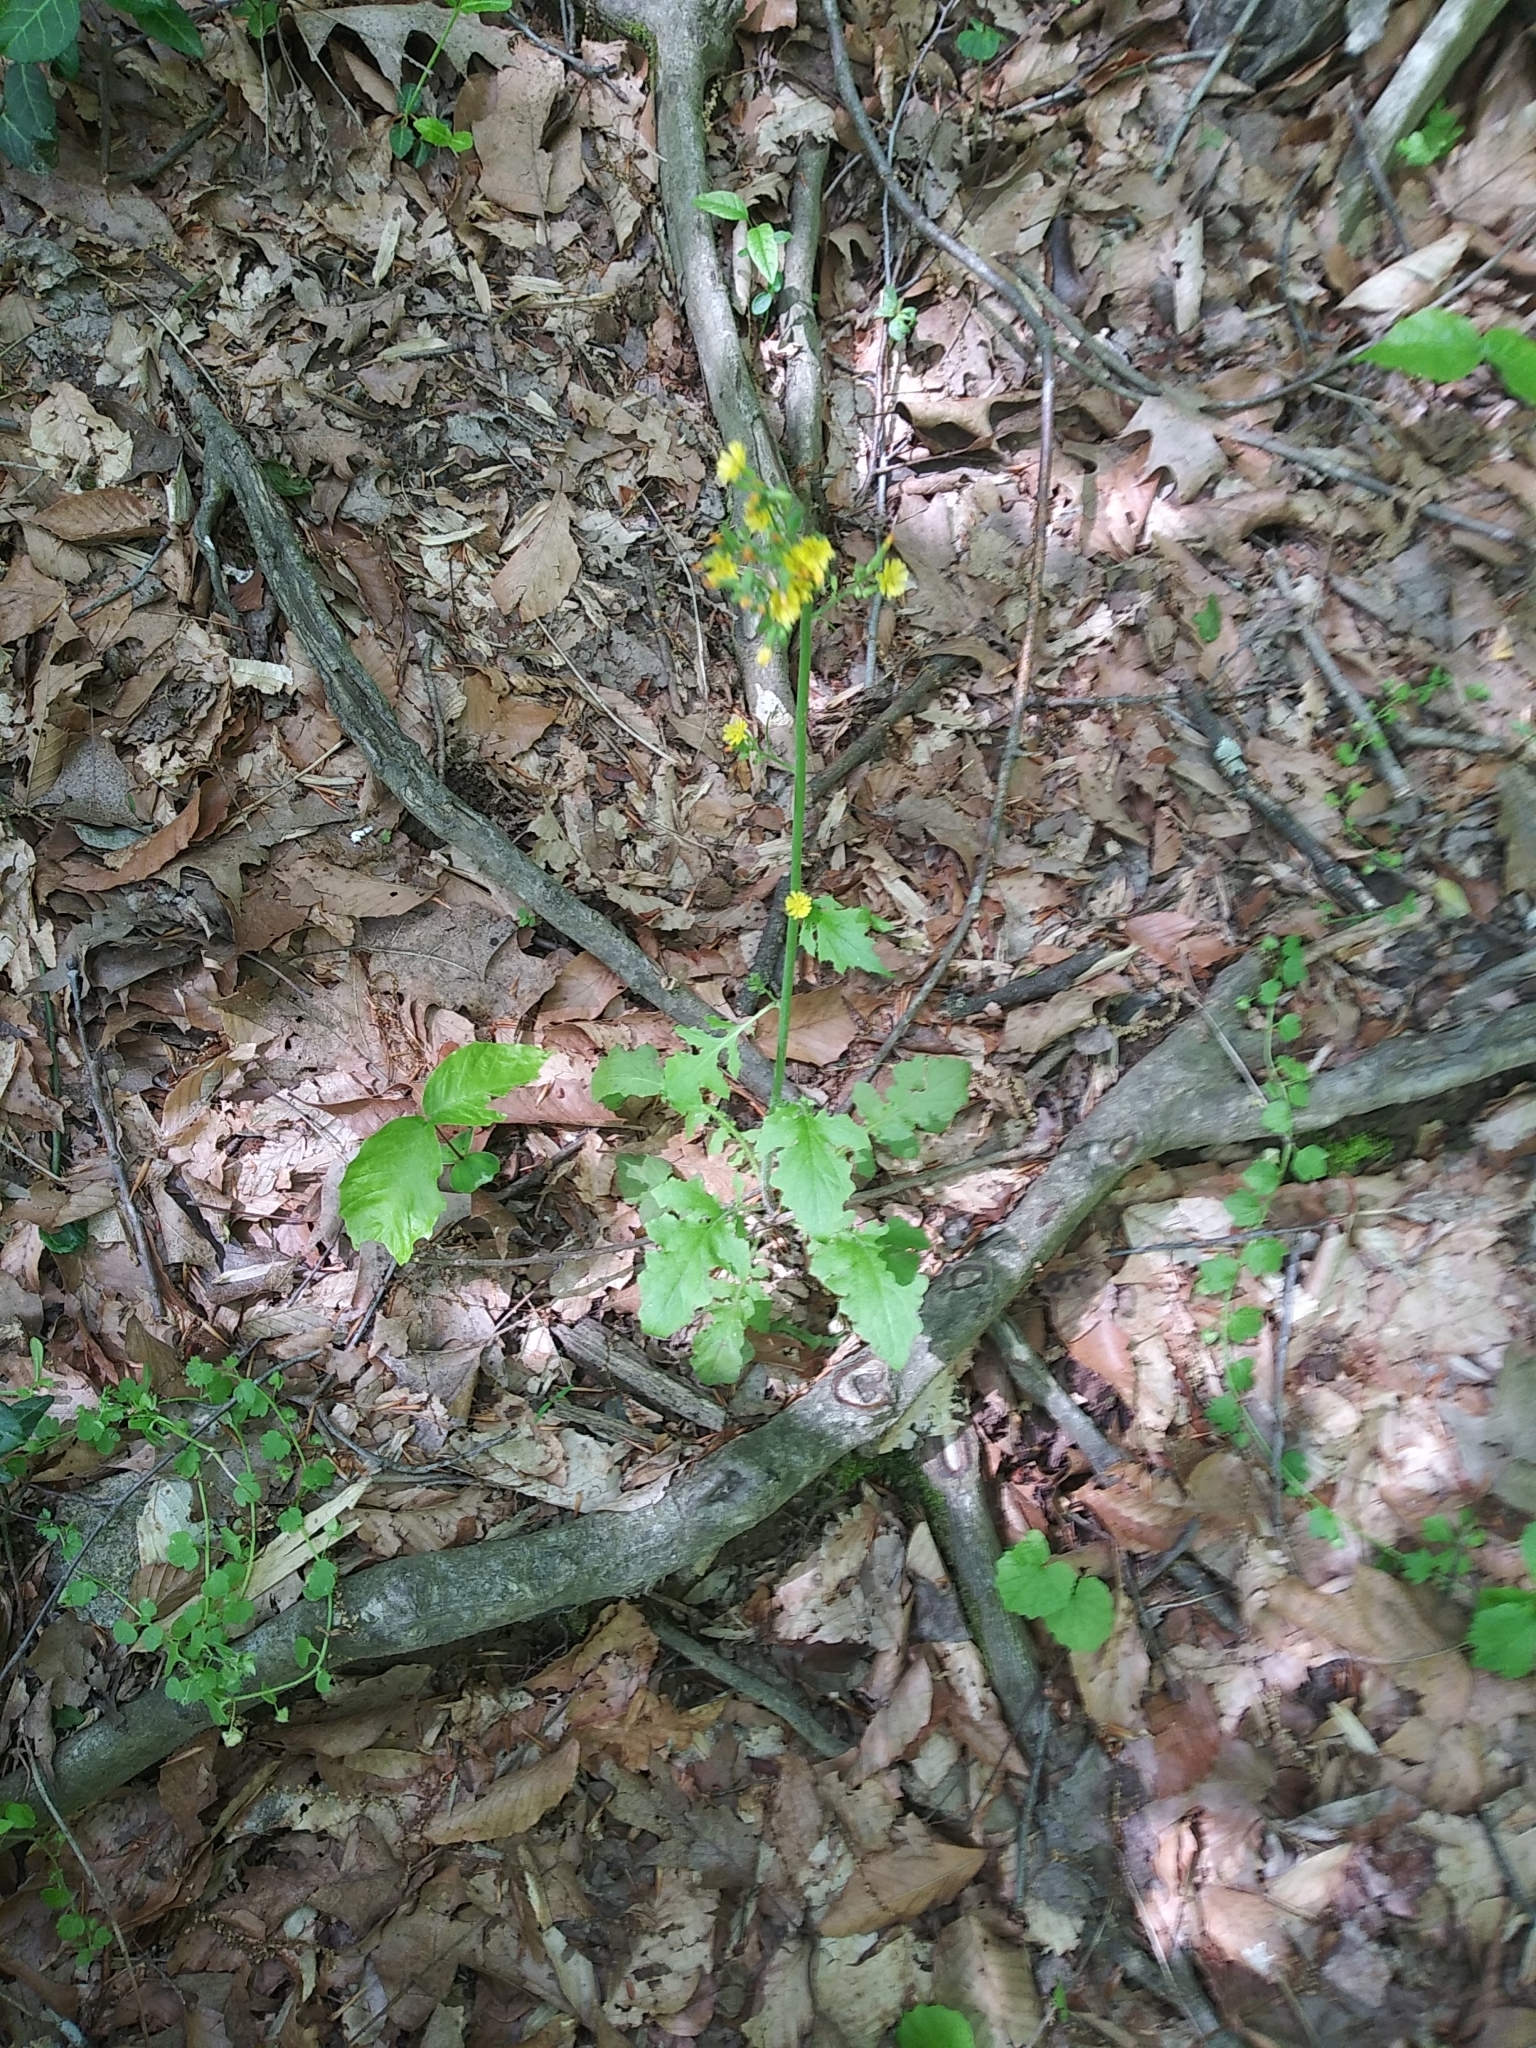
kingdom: Plantae
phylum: Tracheophyta
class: Magnoliopsida
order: Asterales
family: Asteraceae
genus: Youngia
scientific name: Youngia japonica
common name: Oriental false hawksbeard
